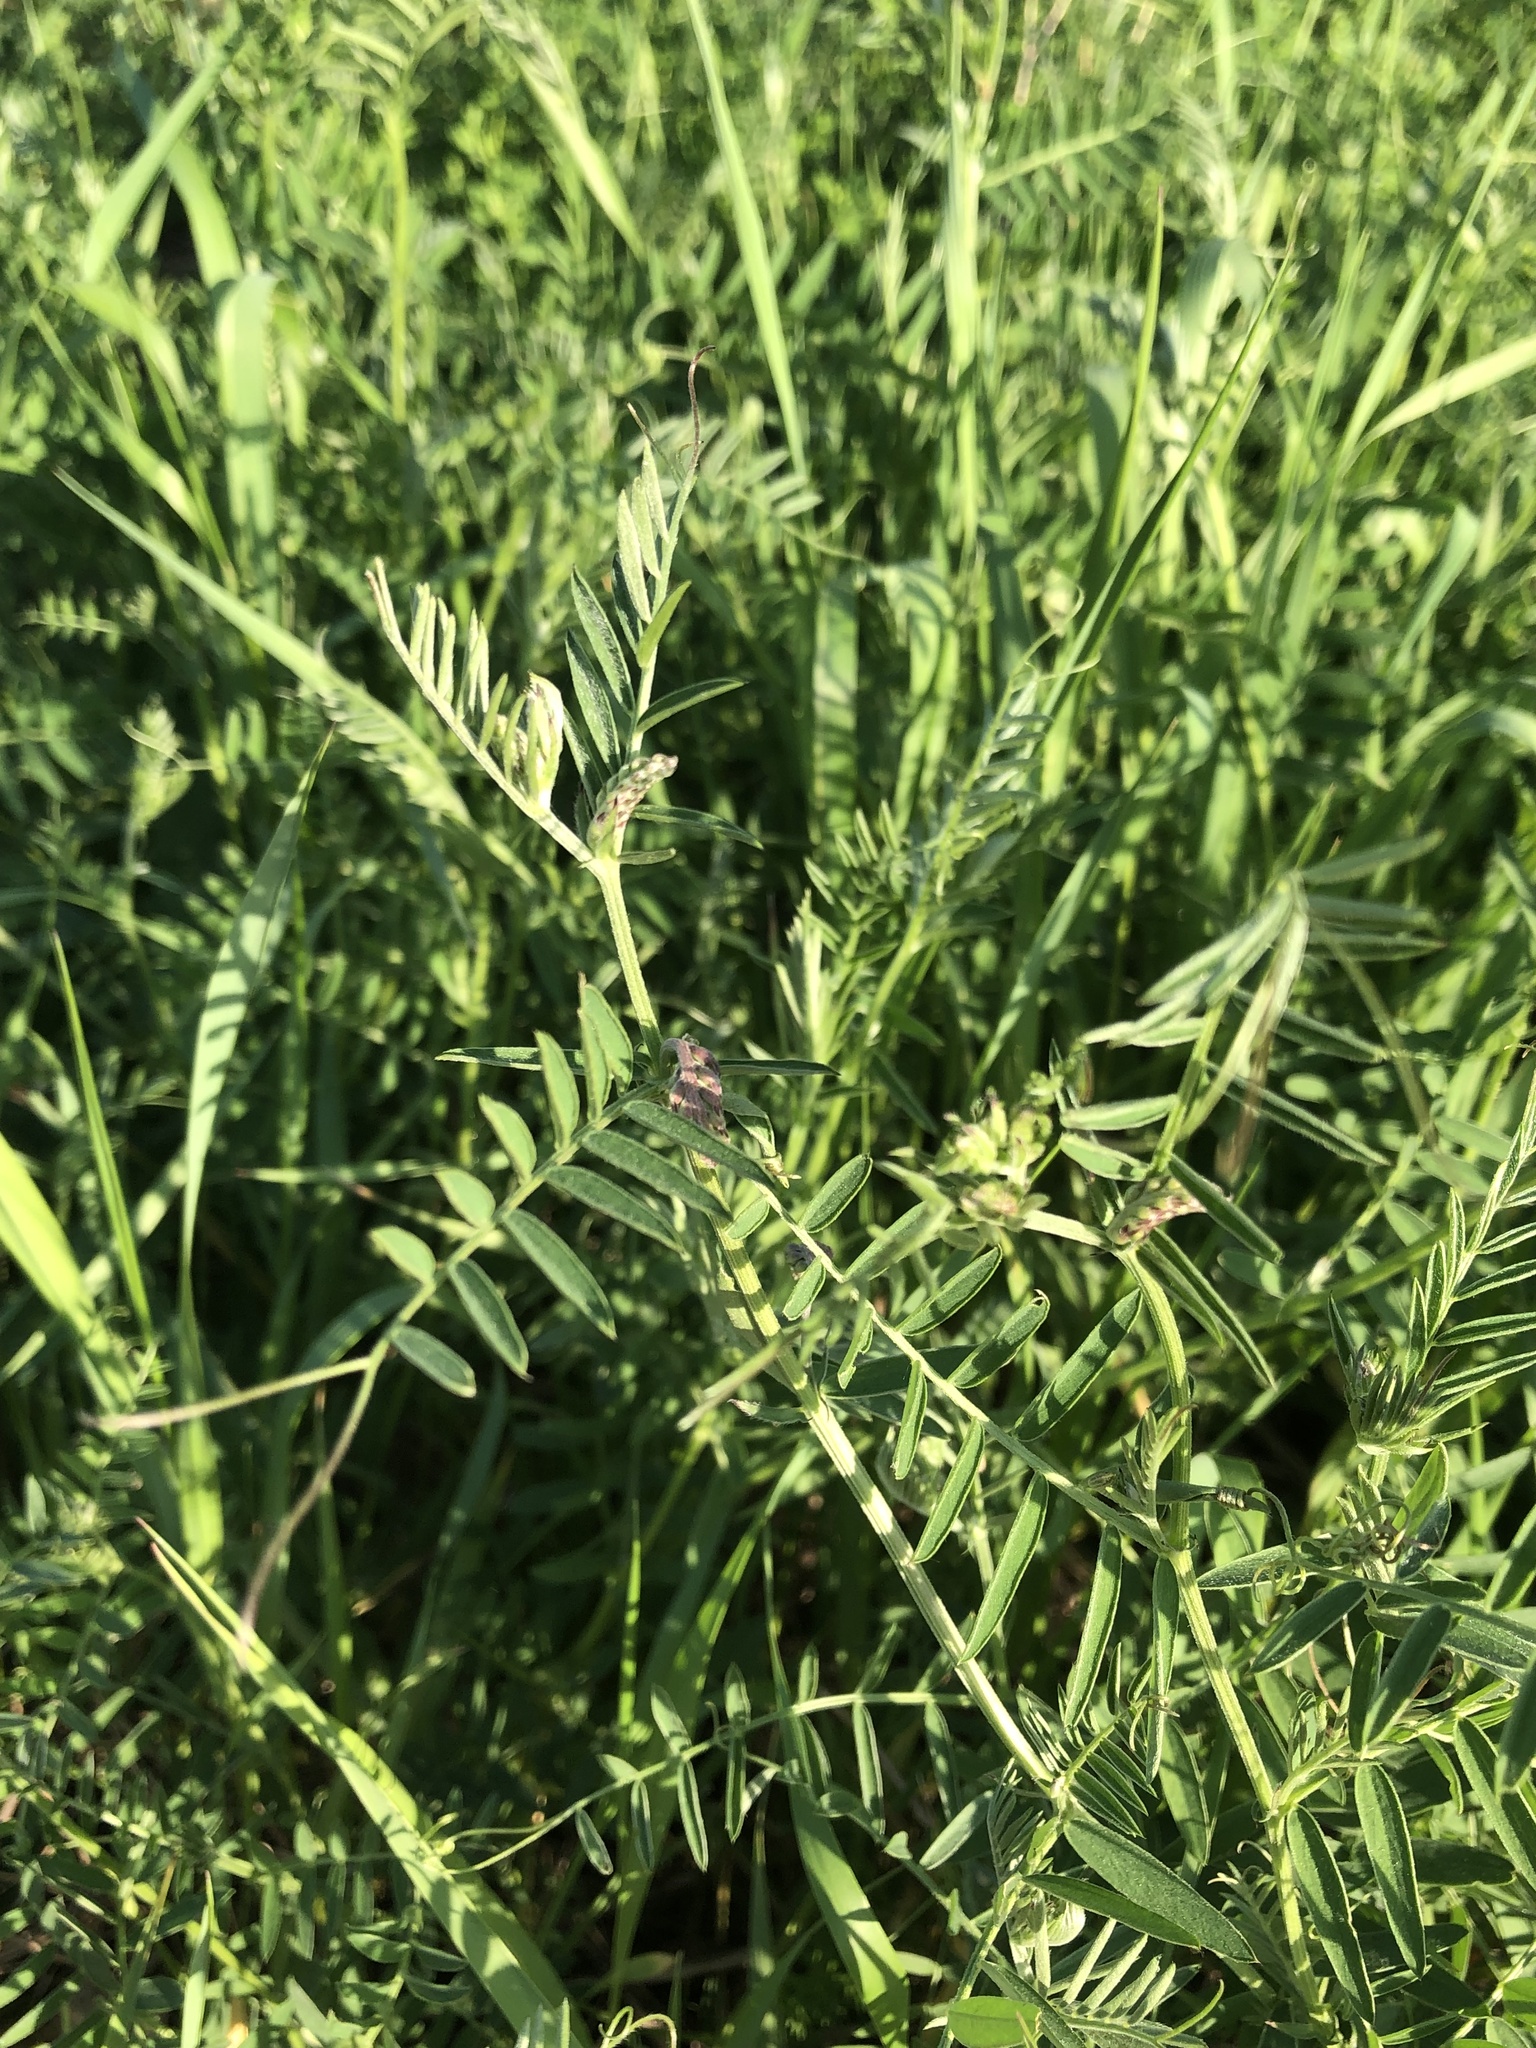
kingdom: Plantae
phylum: Tracheophyta
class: Magnoliopsida
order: Fabales
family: Fabaceae
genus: Vicia
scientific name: Vicia cracca
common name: Bird vetch
